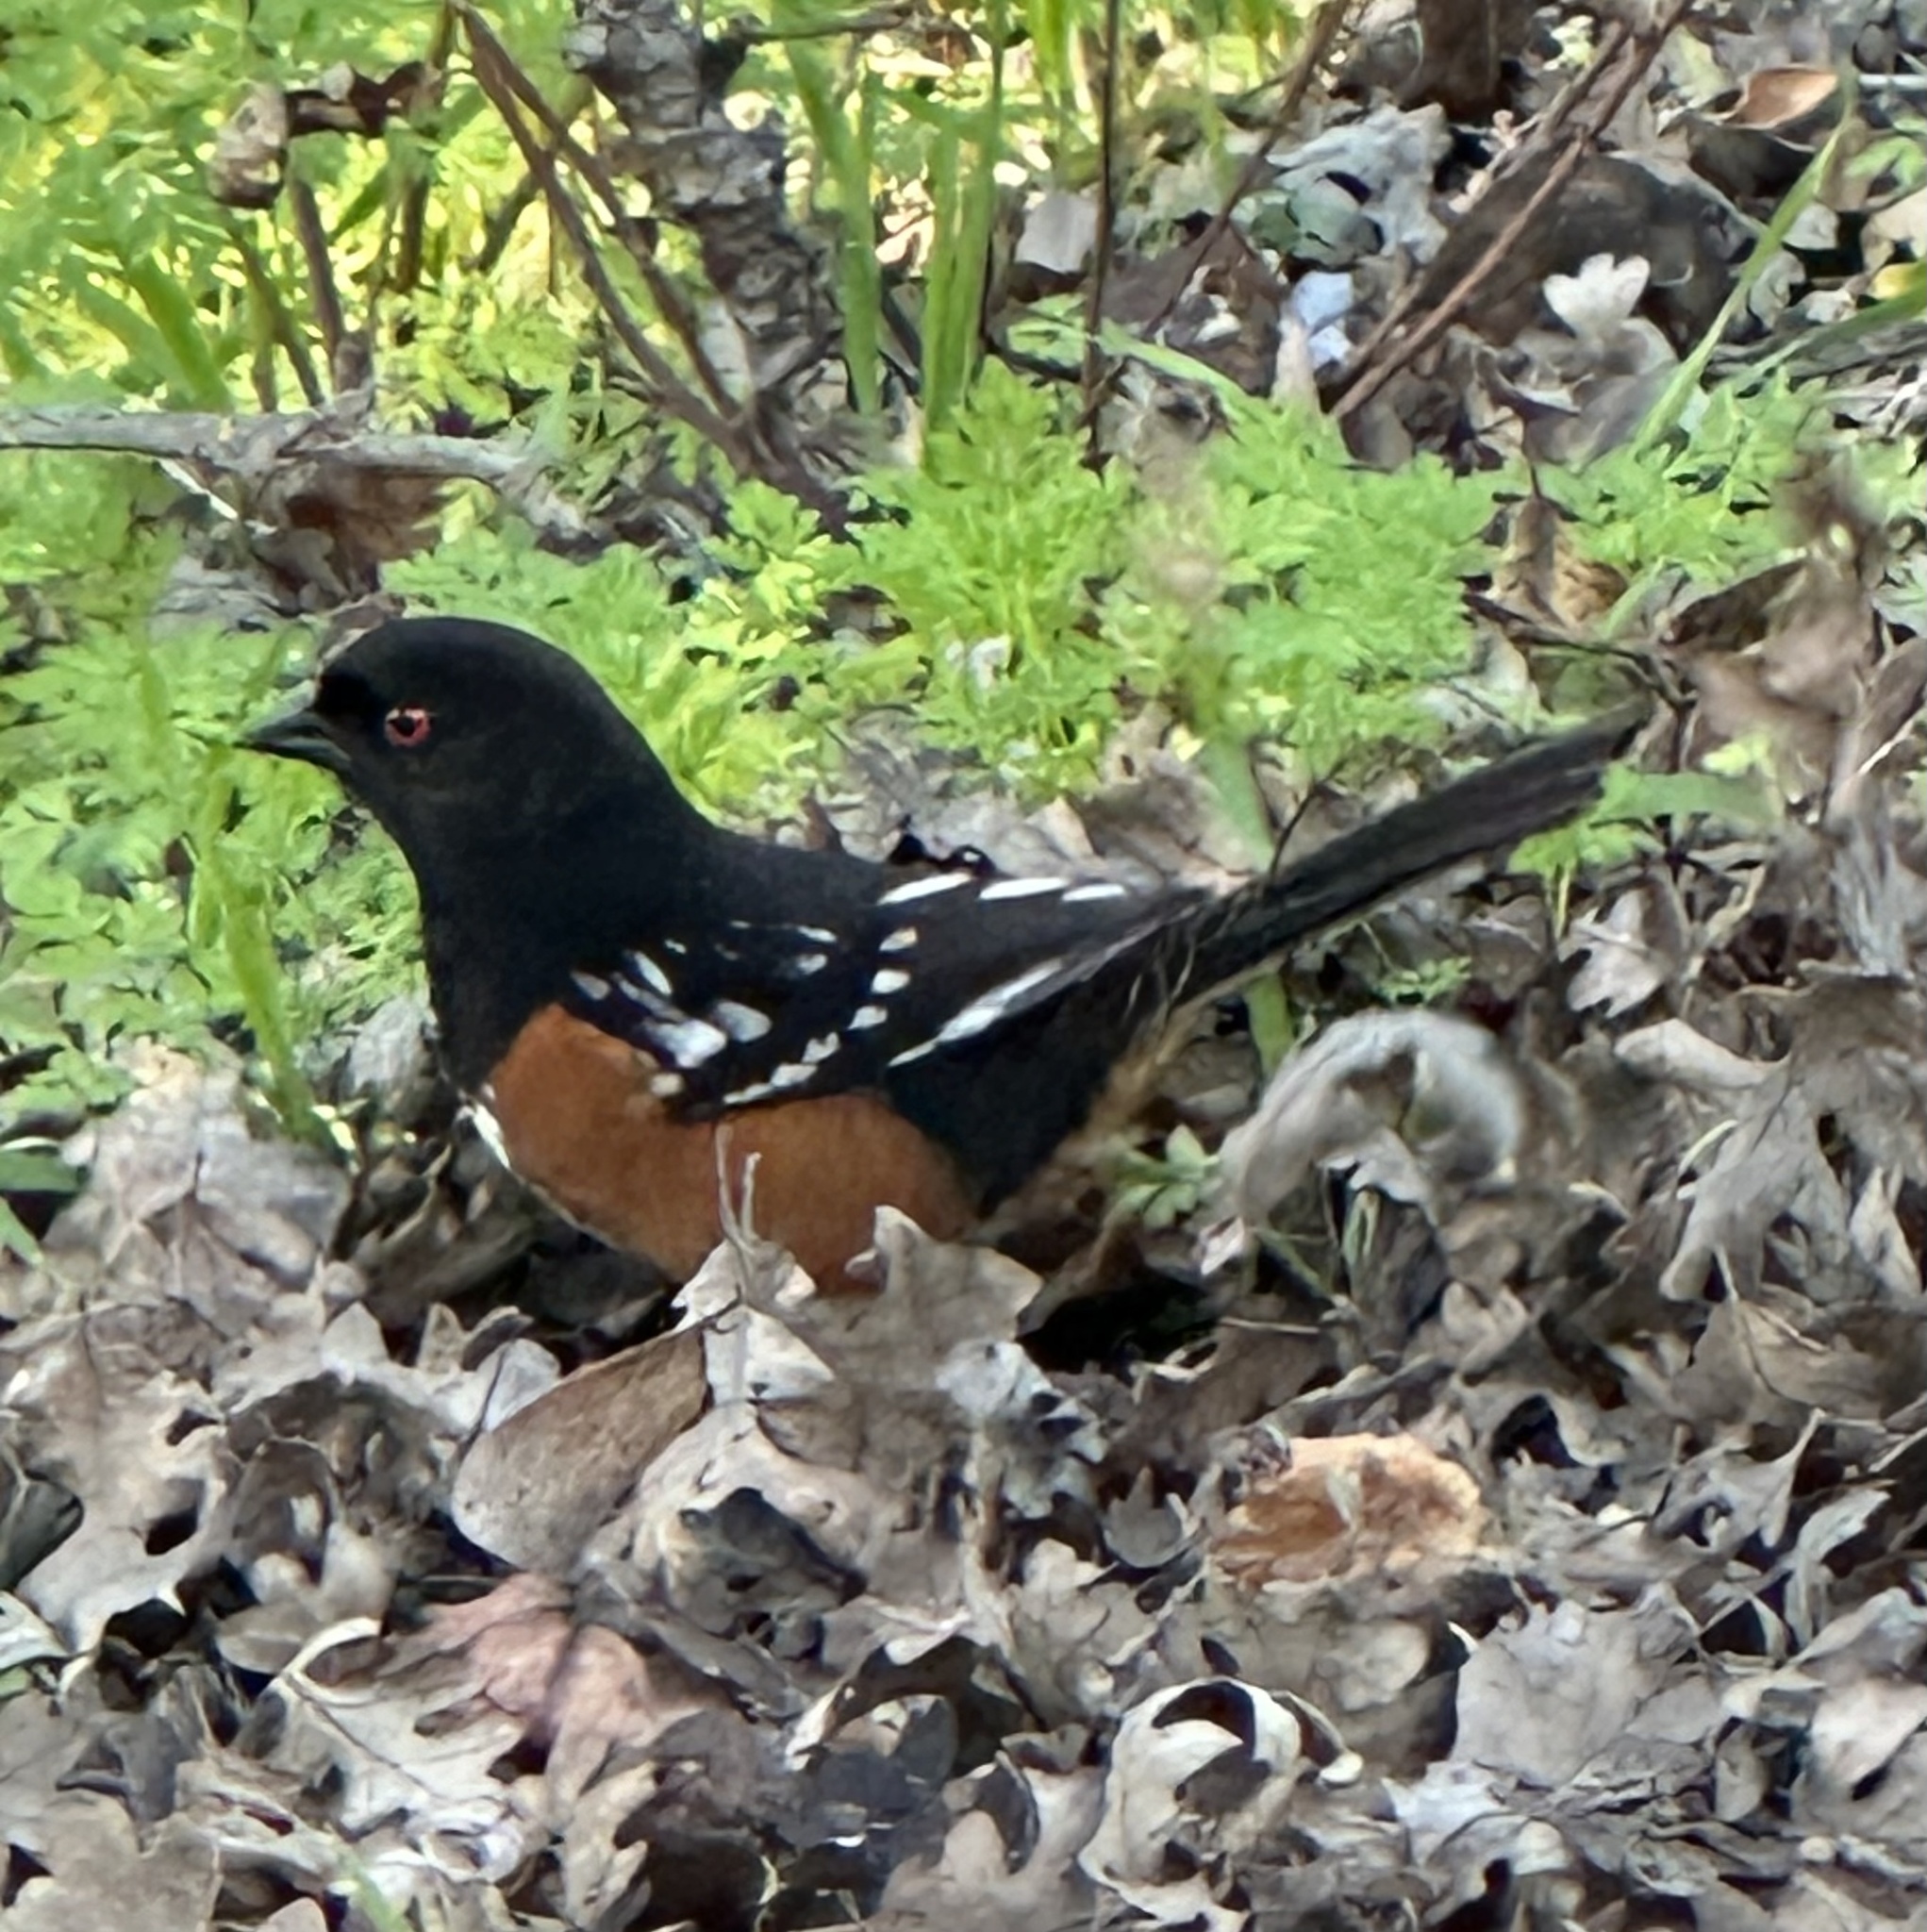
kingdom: Animalia
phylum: Chordata
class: Aves
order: Passeriformes
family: Passerellidae
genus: Pipilo
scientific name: Pipilo maculatus
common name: Spotted towhee
